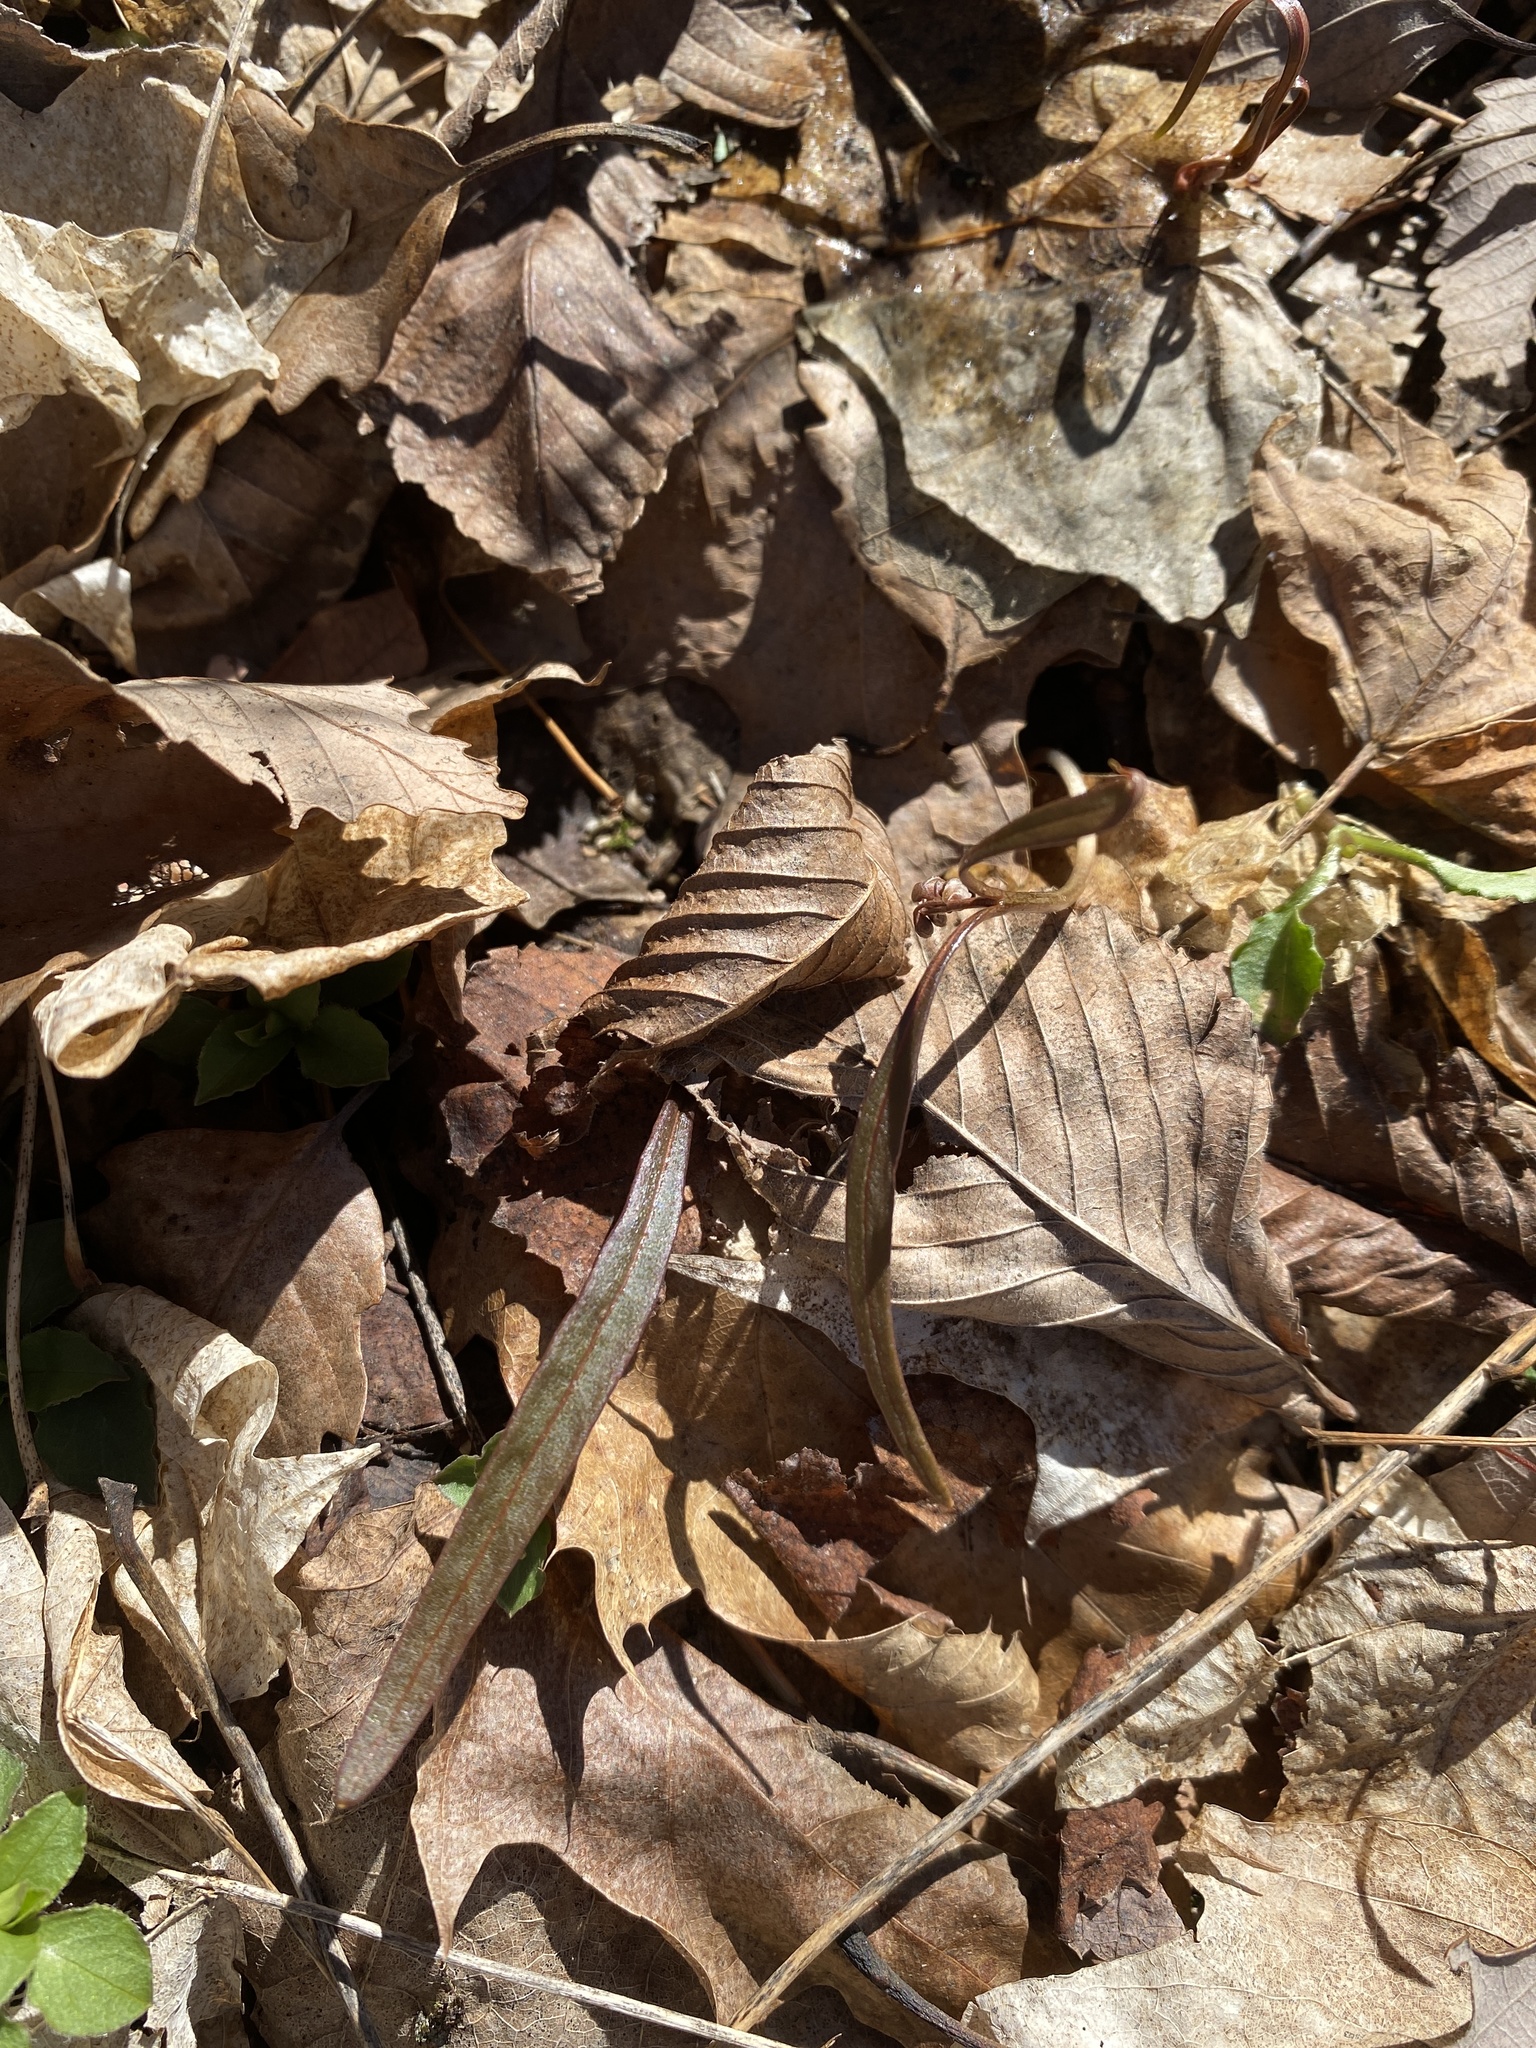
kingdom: Plantae
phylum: Tracheophyta
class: Magnoliopsida
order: Caryophyllales
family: Montiaceae
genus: Claytonia
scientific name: Claytonia virginica
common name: Virginia springbeauty
